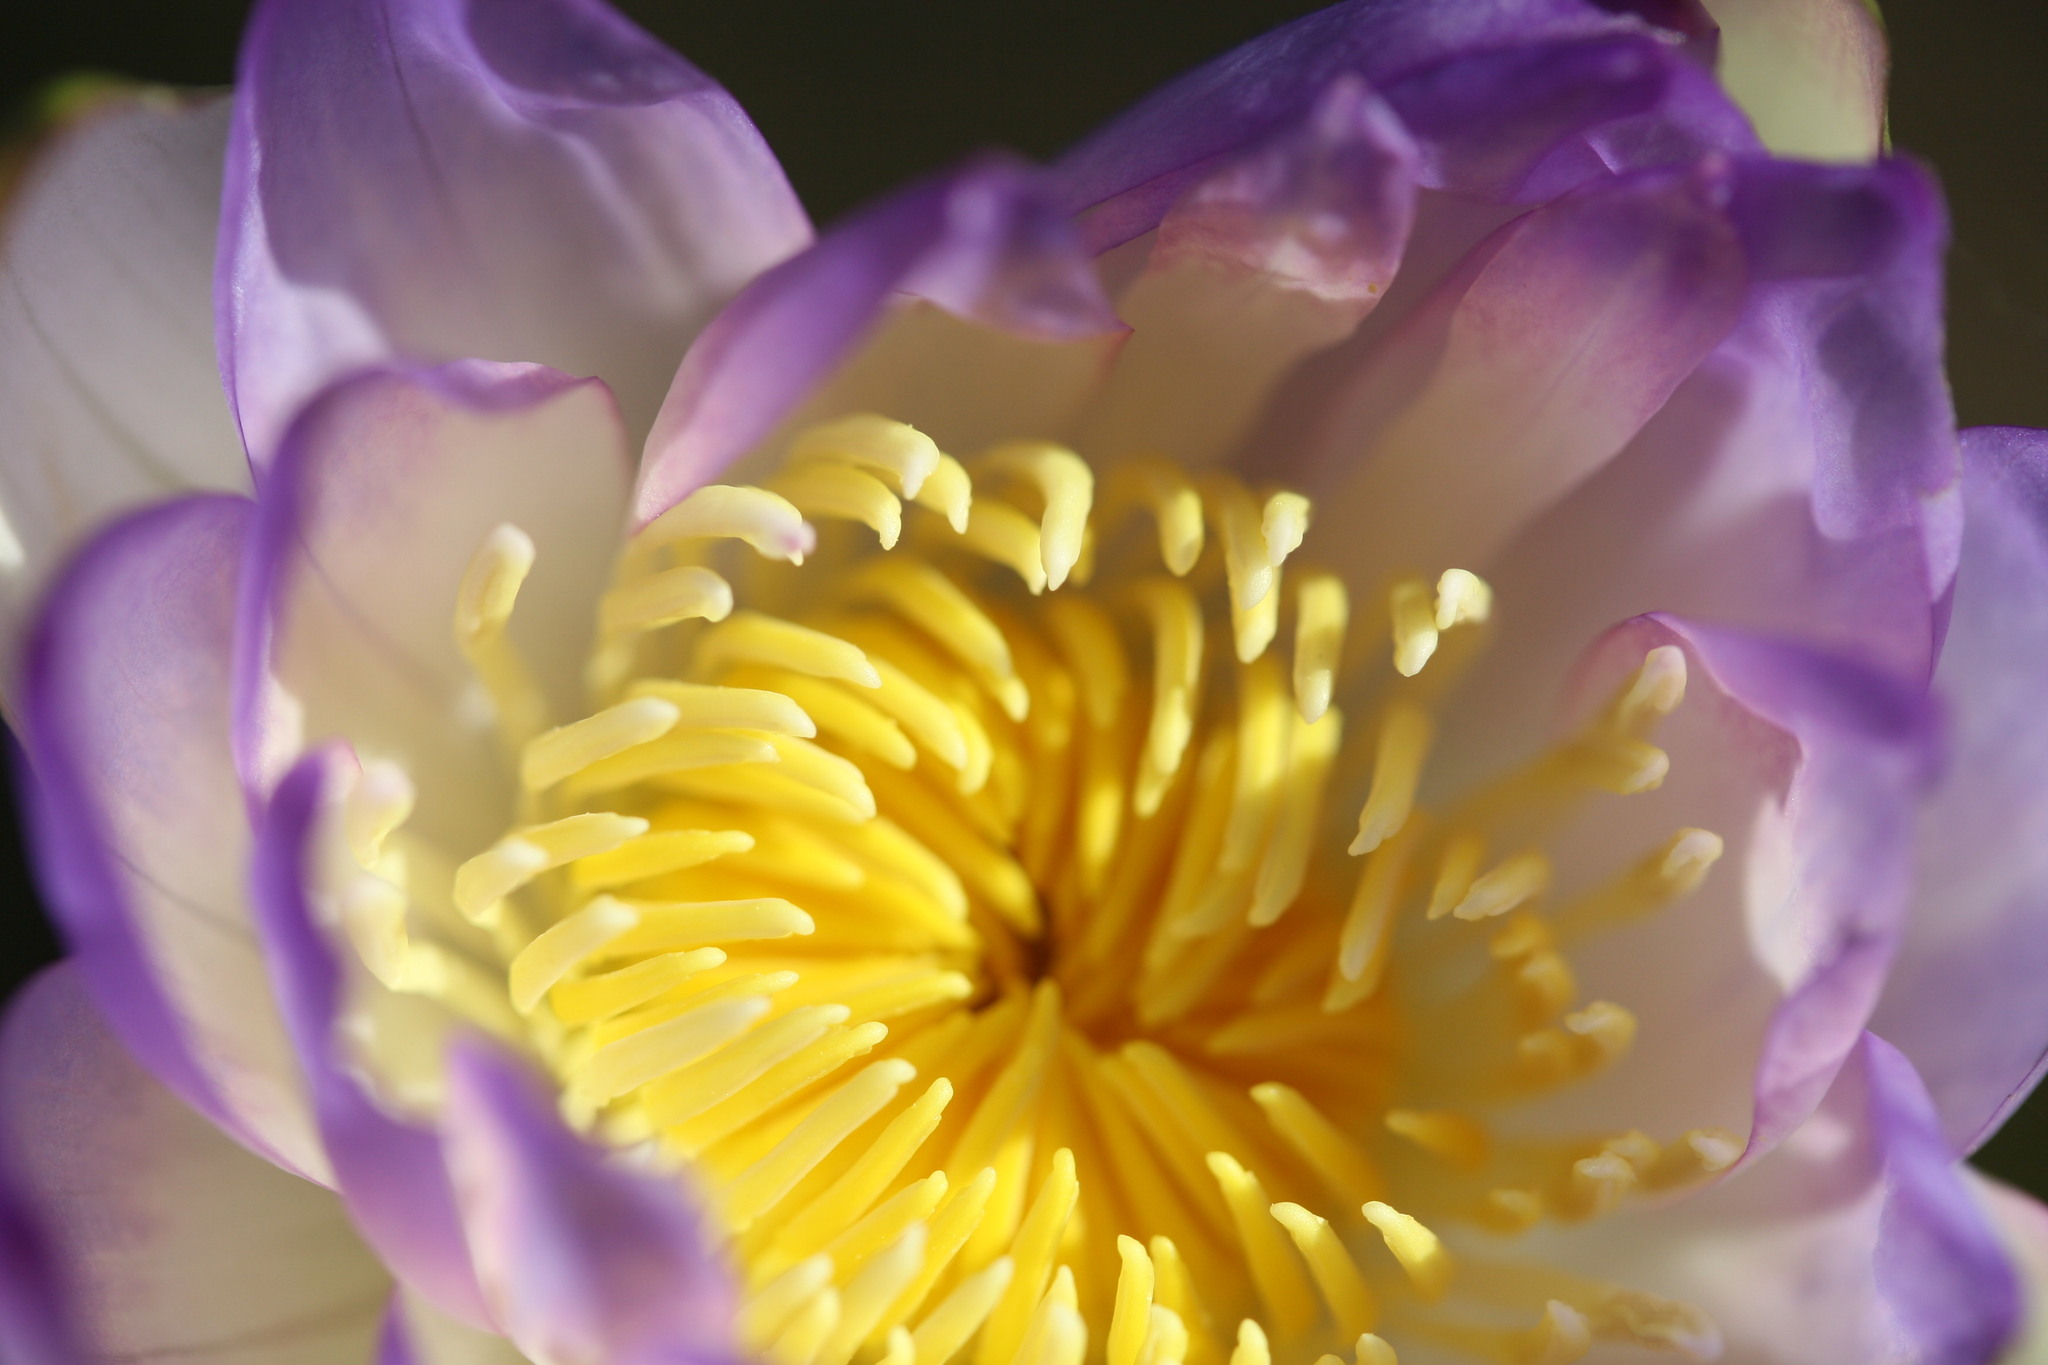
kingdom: Plantae
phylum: Tracheophyta
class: Magnoliopsida
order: Nymphaeales
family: Nymphaeaceae
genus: Nymphaea
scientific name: Nymphaea lukei
